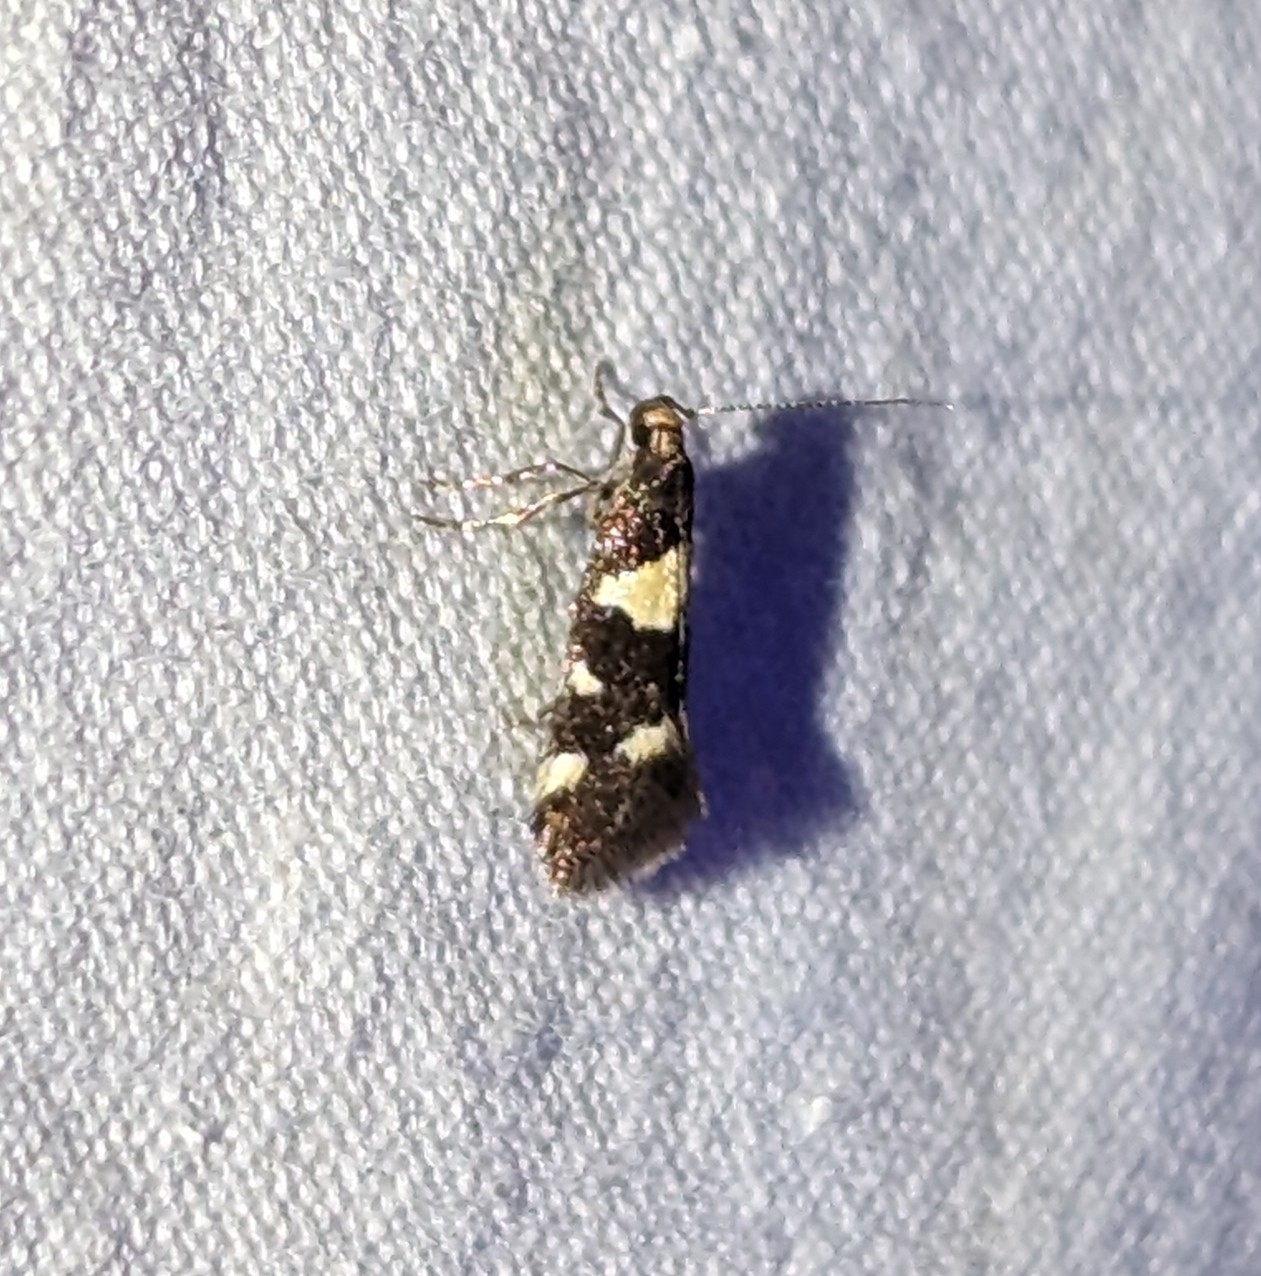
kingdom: Animalia
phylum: Arthropoda
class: Insecta
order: Lepidoptera
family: Oecophoridae
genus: Brymblia
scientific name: Brymblia quadrimaculella
